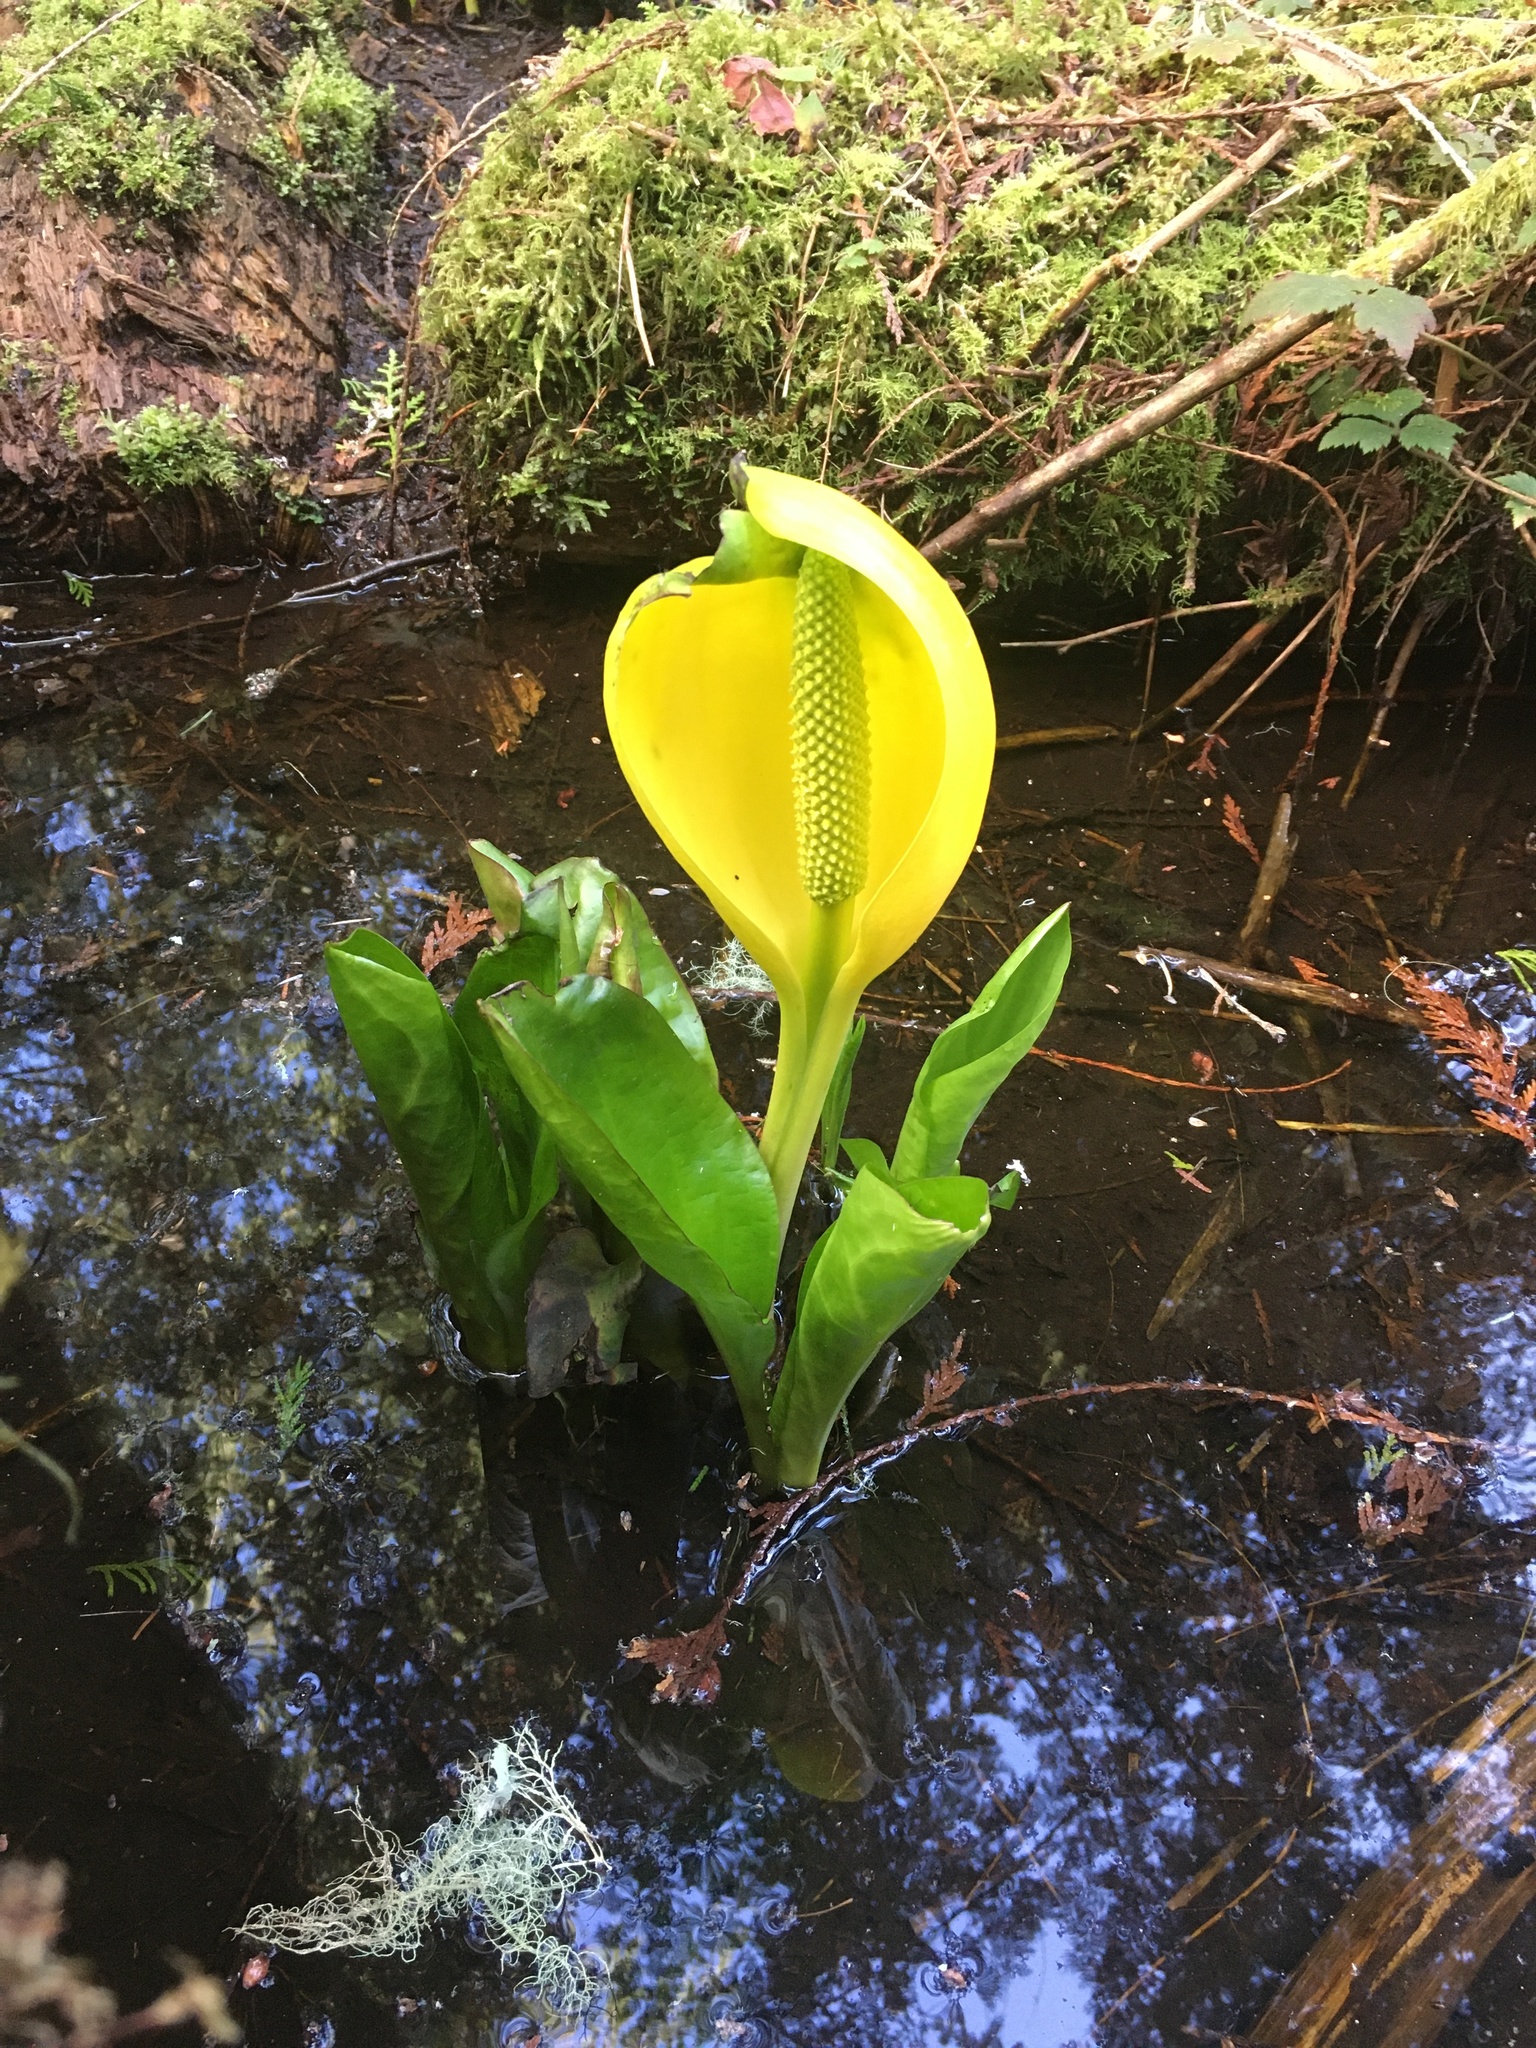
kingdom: Plantae
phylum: Tracheophyta
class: Liliopsida
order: Alismatales
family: Araceae
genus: Lysichiton
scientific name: Lysichiton americanus
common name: American skunk cabbage
